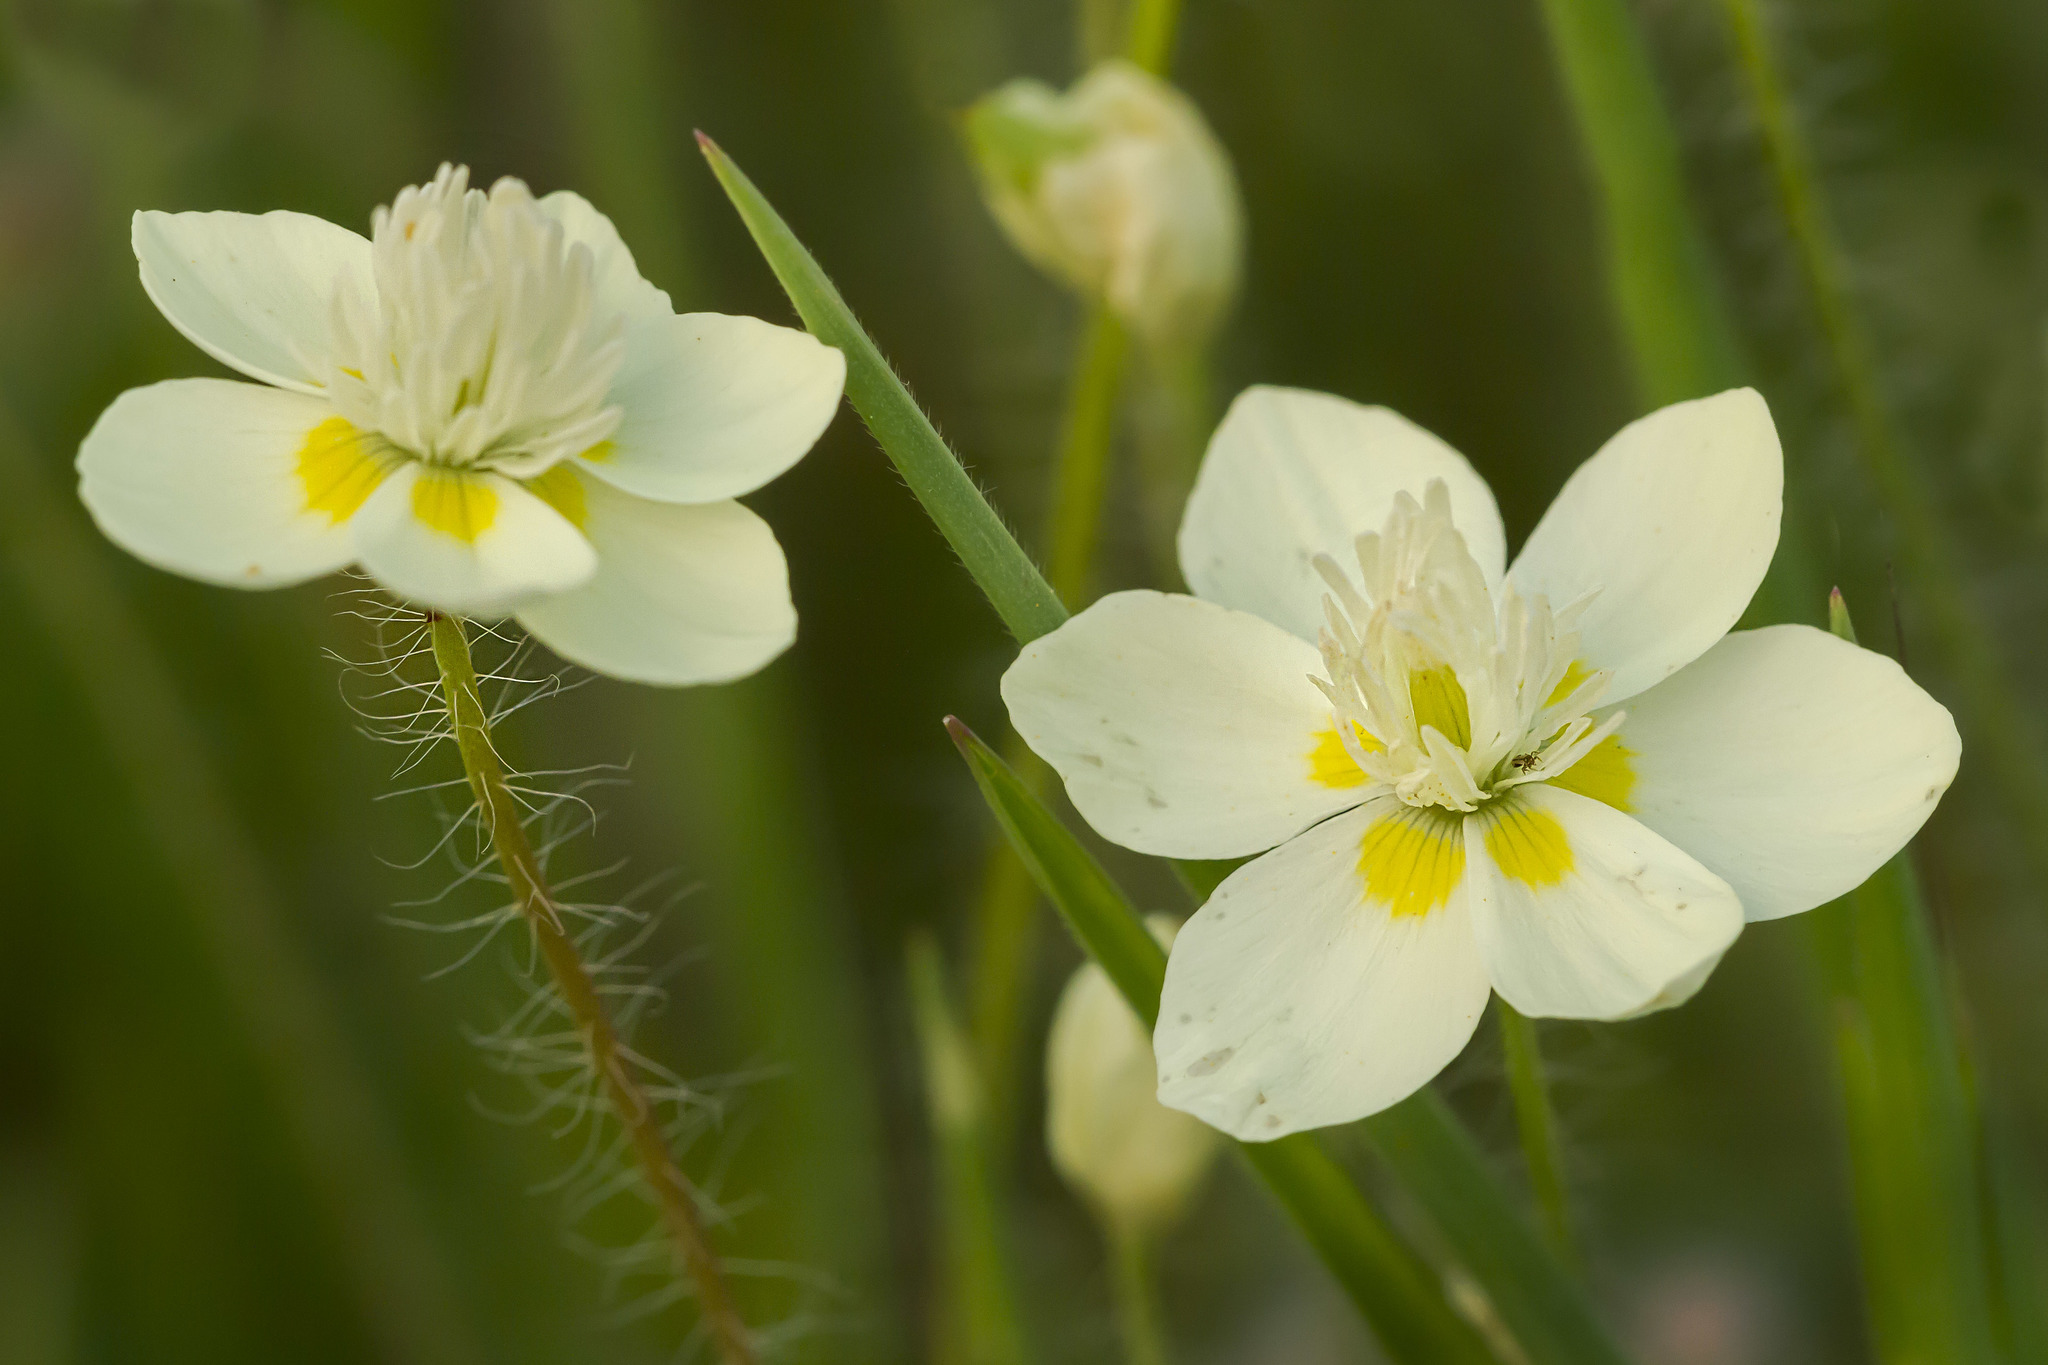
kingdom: Plantae
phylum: Tracheophyta
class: Magnoliopsida
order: Ranunculales
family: Papaveraceae
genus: Platystemon
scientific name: Platystemon californicus
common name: Cream-cups
